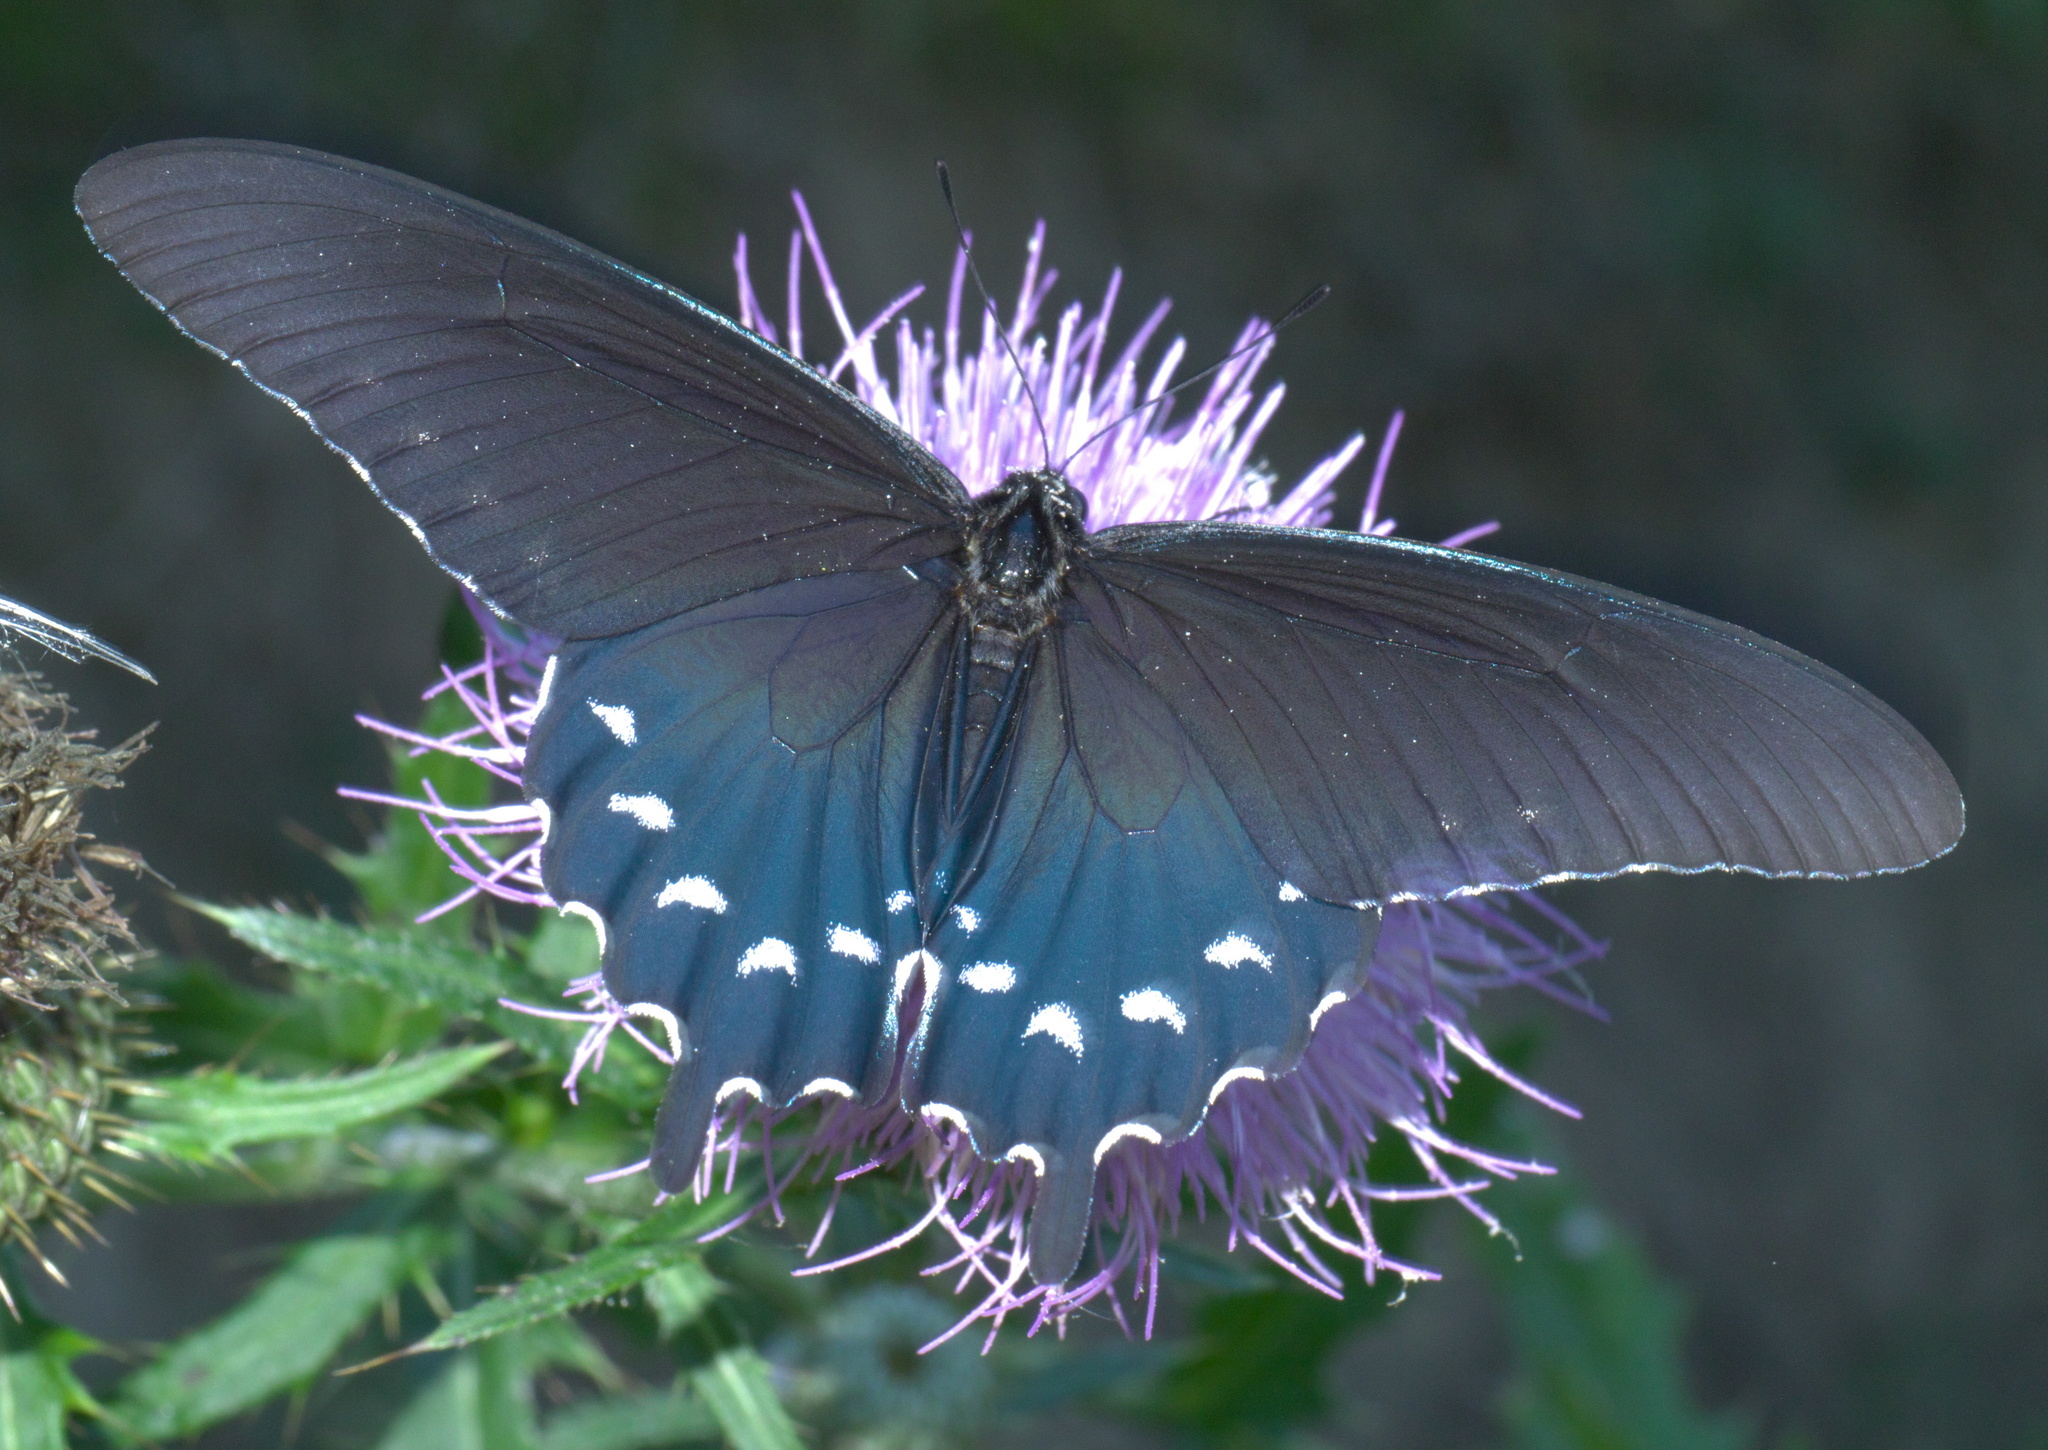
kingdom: Animalia
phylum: Arthropoda
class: Insecta
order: Lepidoptera
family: Papilionidae
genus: Battus
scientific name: Battus philenor
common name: Pipevine swallowtail
